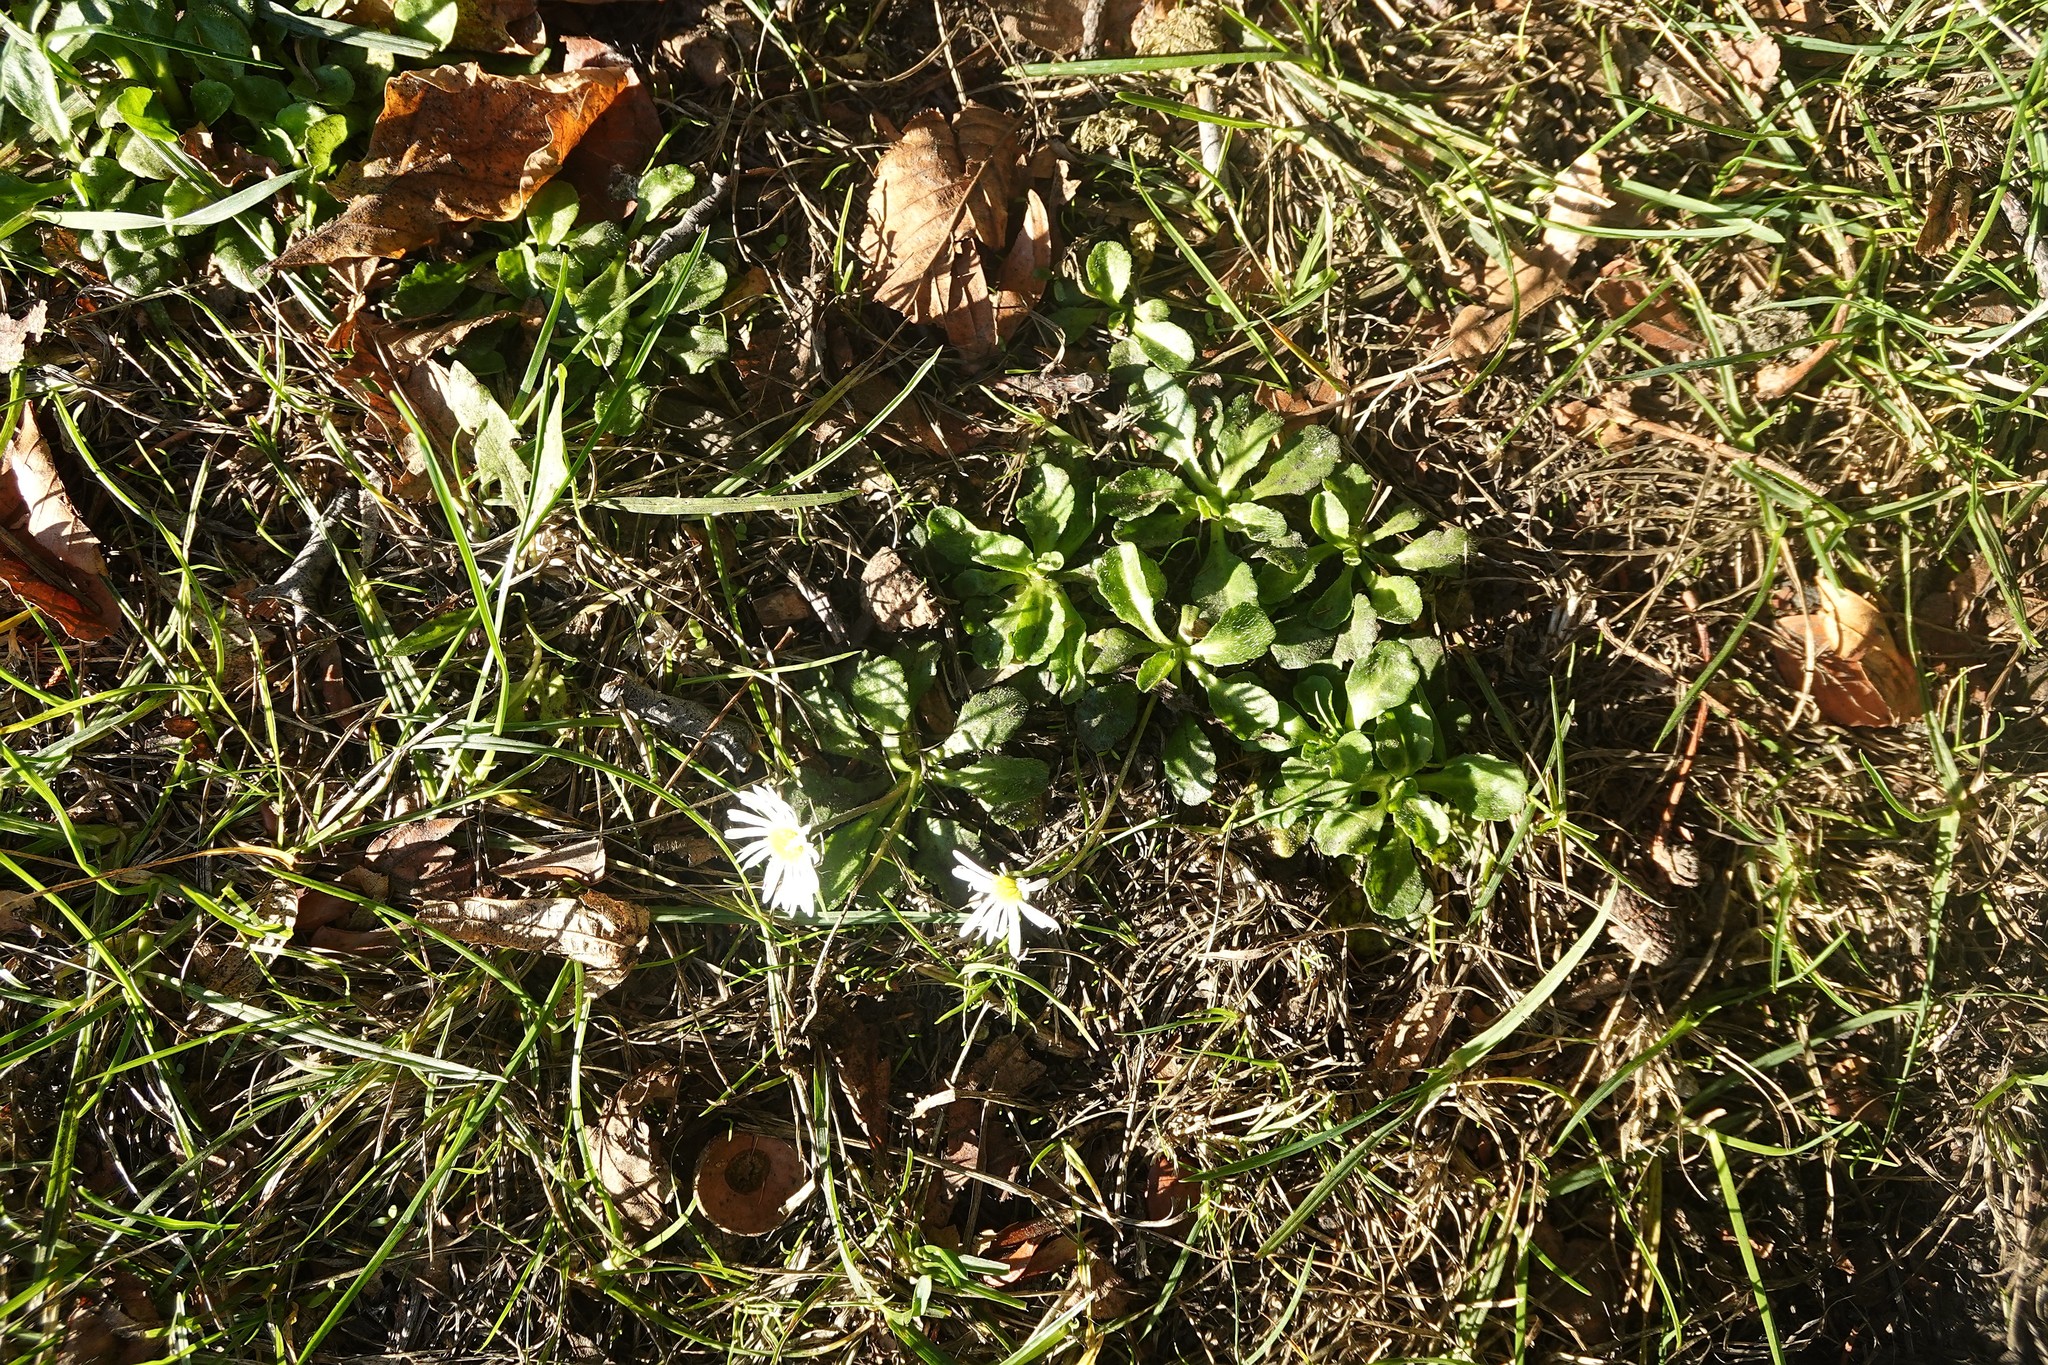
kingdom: Plantae
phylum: Tracheophyta
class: Magnoliopsida
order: Asterales
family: Asteraceae
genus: Bellis
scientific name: Bellis perennis
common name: Lawndaisy
